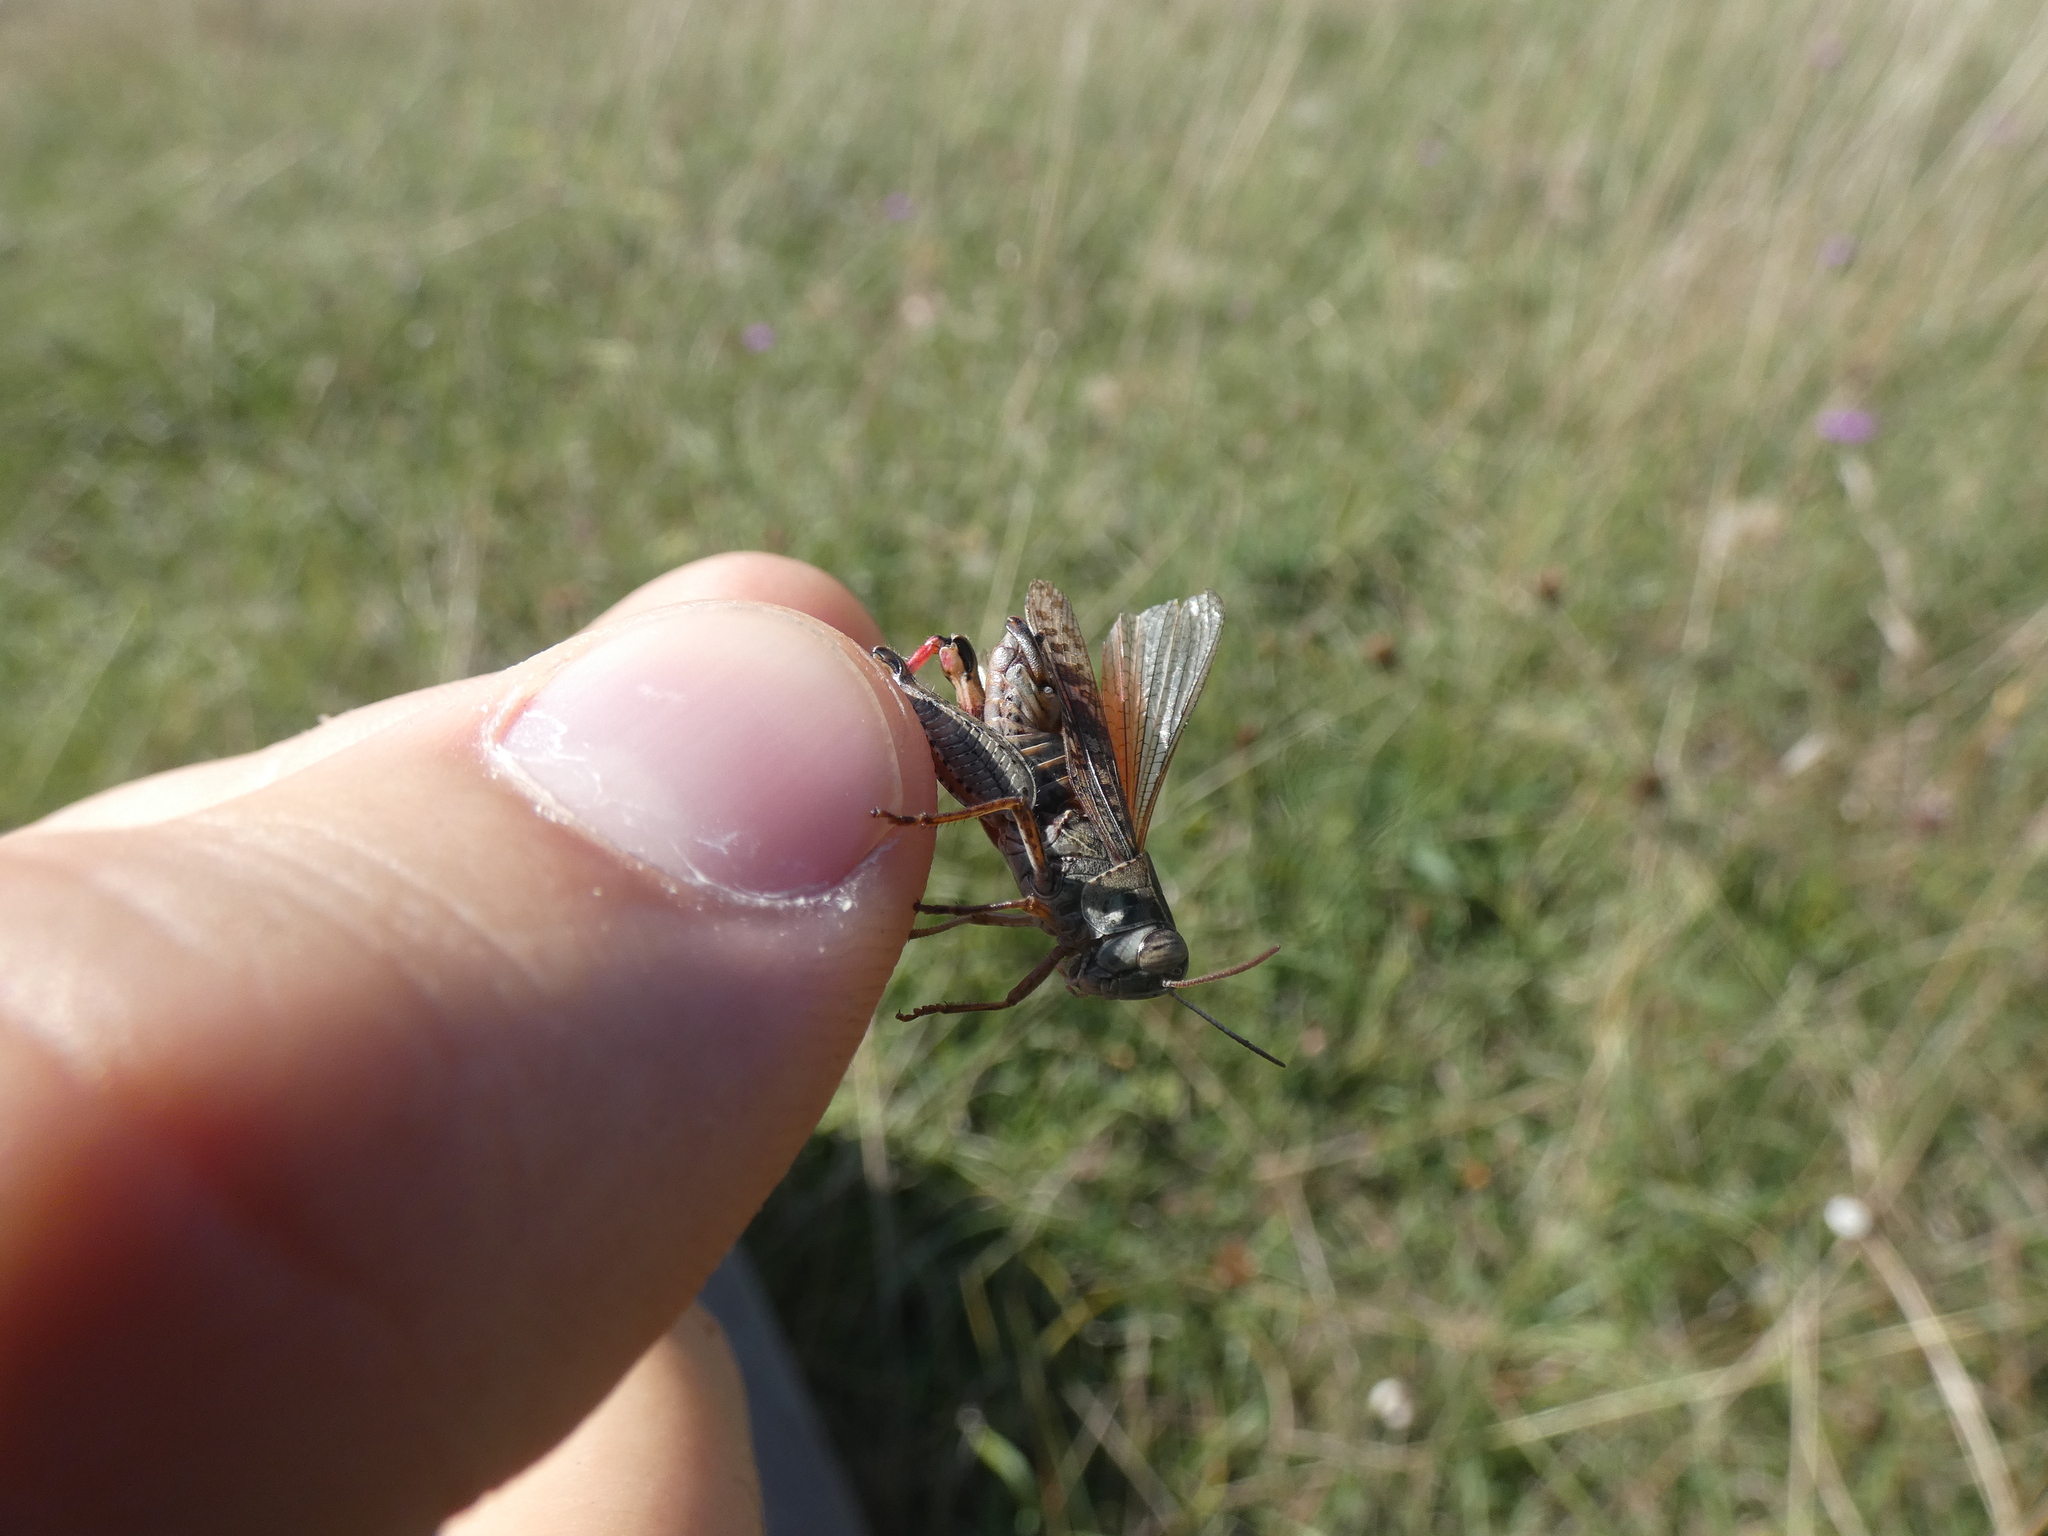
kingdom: Animalia
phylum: Arthropoda
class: Insecta
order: Orthoptera
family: Acrididae
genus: Calliptamus
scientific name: Calliptamus italicus
